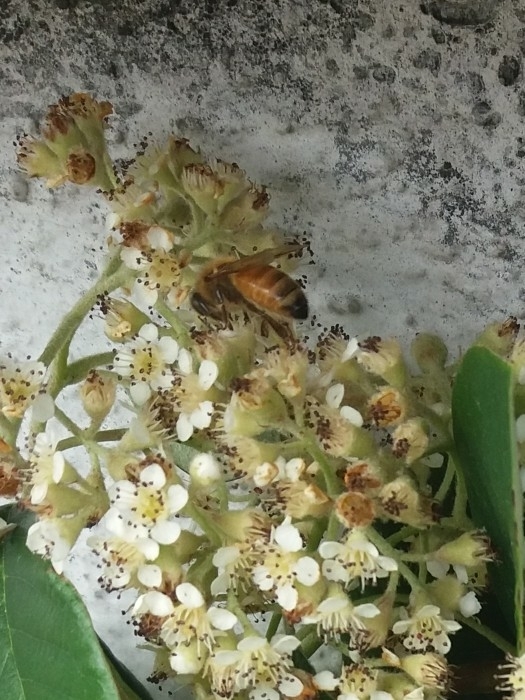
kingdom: Animalia
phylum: Arthropoda
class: Insecta
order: Hymenoptera
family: Apidae
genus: Apis
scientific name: Apis mellifera
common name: Honey bee
